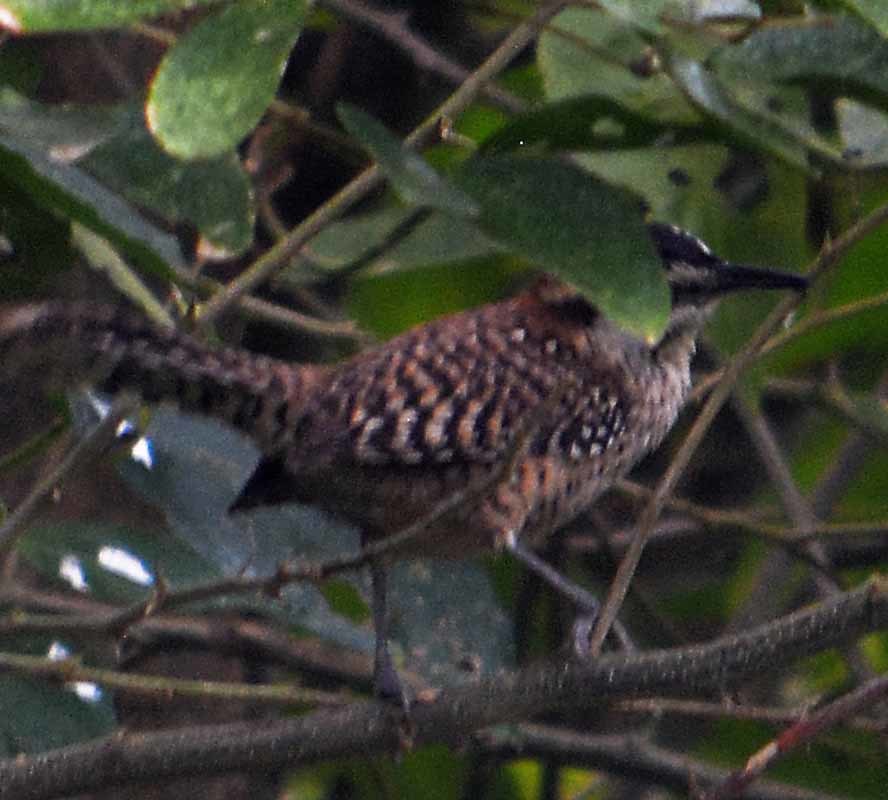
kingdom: Animalia
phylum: Chordata
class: Aves
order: Passeriformes
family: Troglodytidae
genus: Campylorhynchus
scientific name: Campylorhynchus rufinucha
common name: Rufous-naped wren
